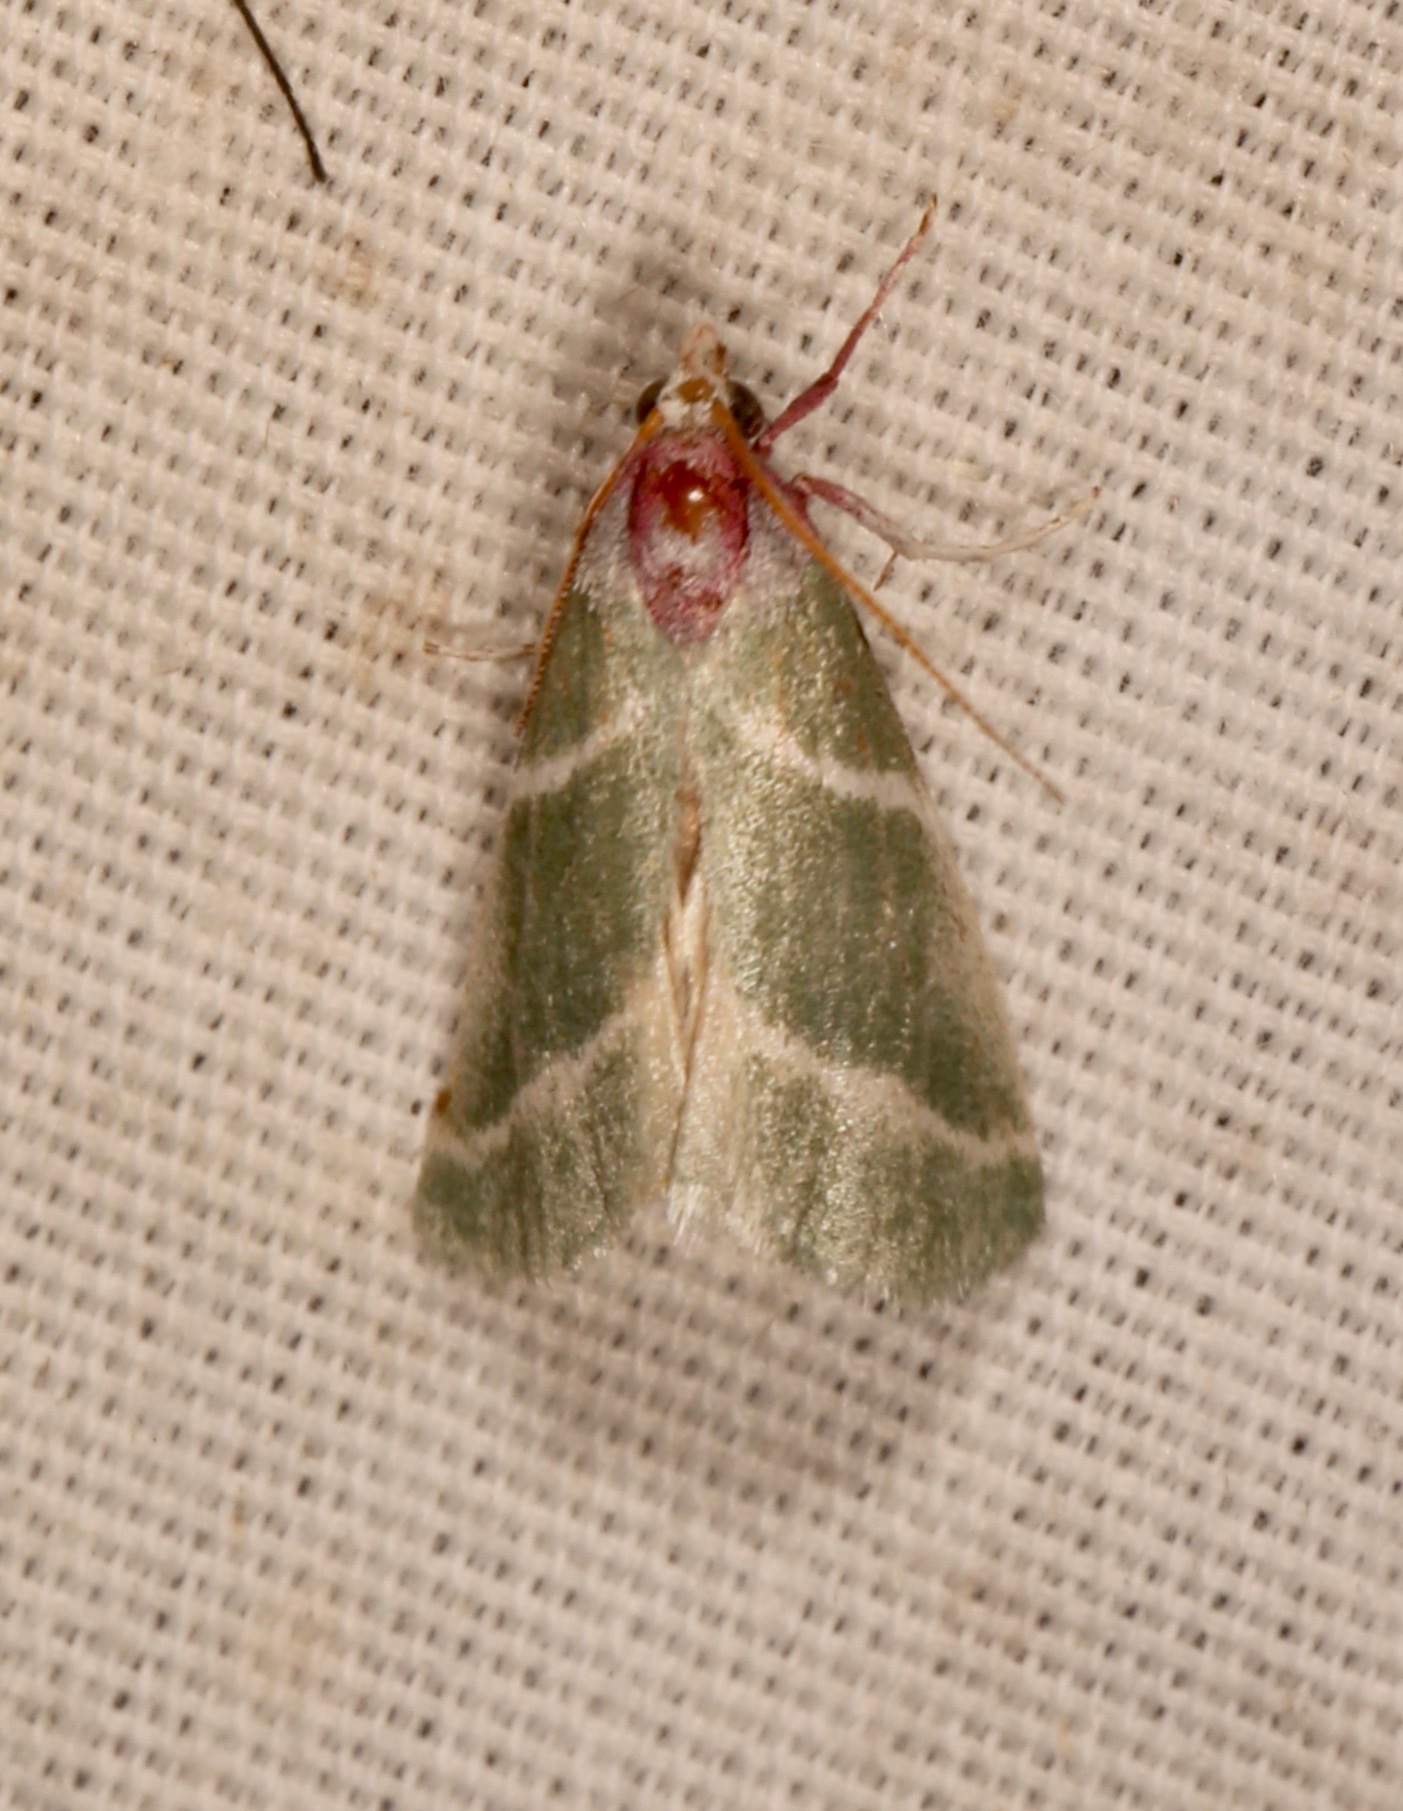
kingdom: Animalia
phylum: Arthropoda
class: Insecta
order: Lepidoptera
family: Pyralidae
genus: Anemosella
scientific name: Anemosella
